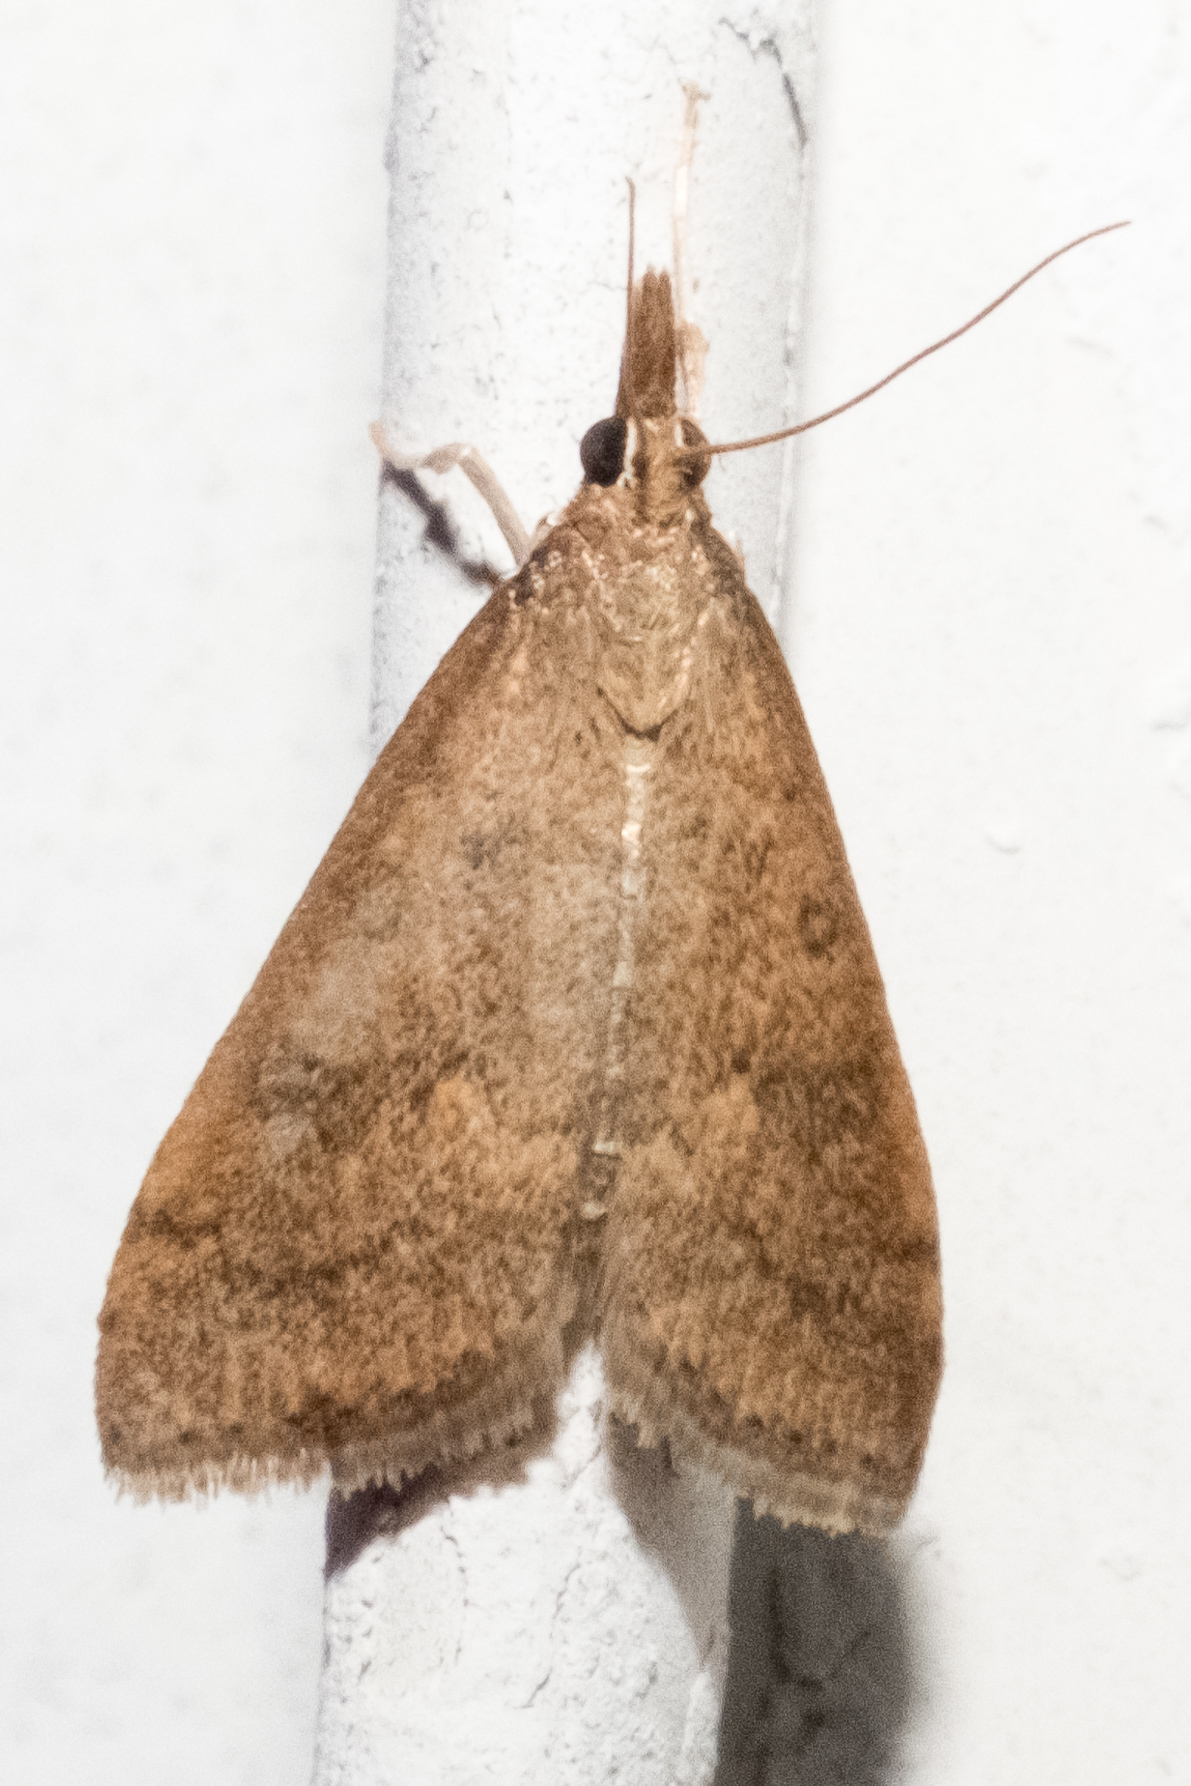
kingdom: Animalia
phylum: Arthropoda
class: Insecta
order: Lepidoptera
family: Crambidae
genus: Udea
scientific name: Udea rubigalis
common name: Celery leaftier moth
